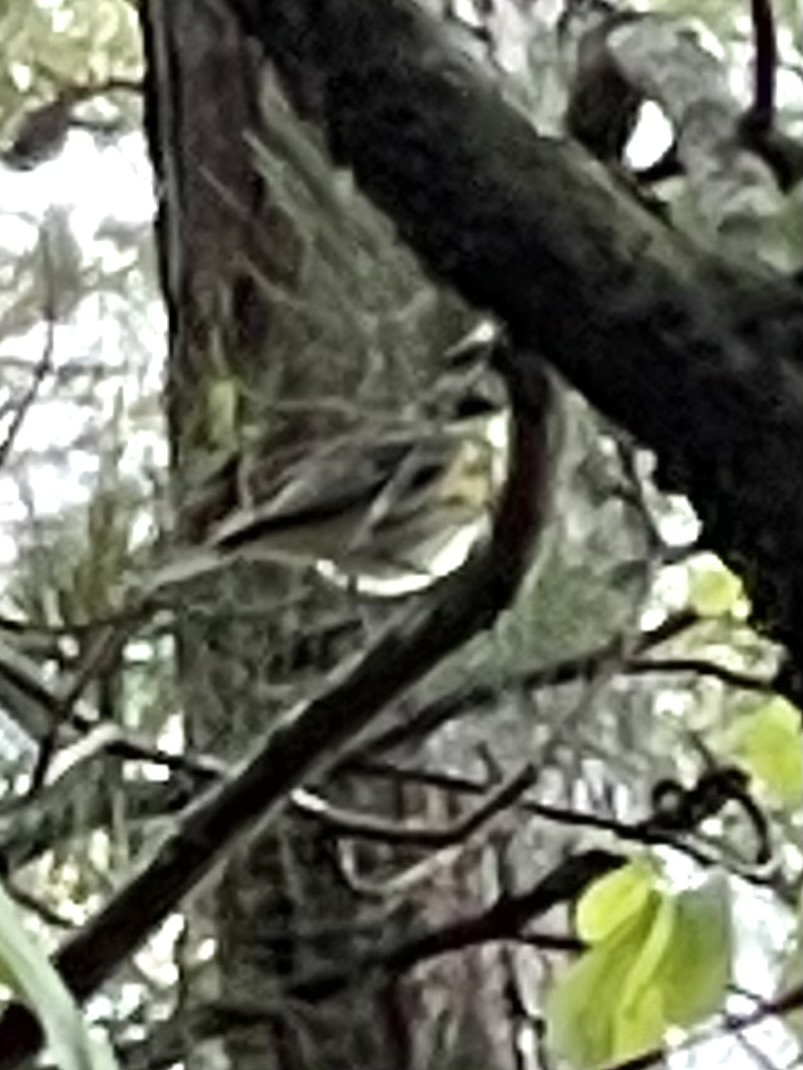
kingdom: Animalia
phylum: Chordata
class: Aves
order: Passeriformes
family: Parulidae
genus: Setophaga
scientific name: Setophaga coronata
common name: Myrtle warbler
